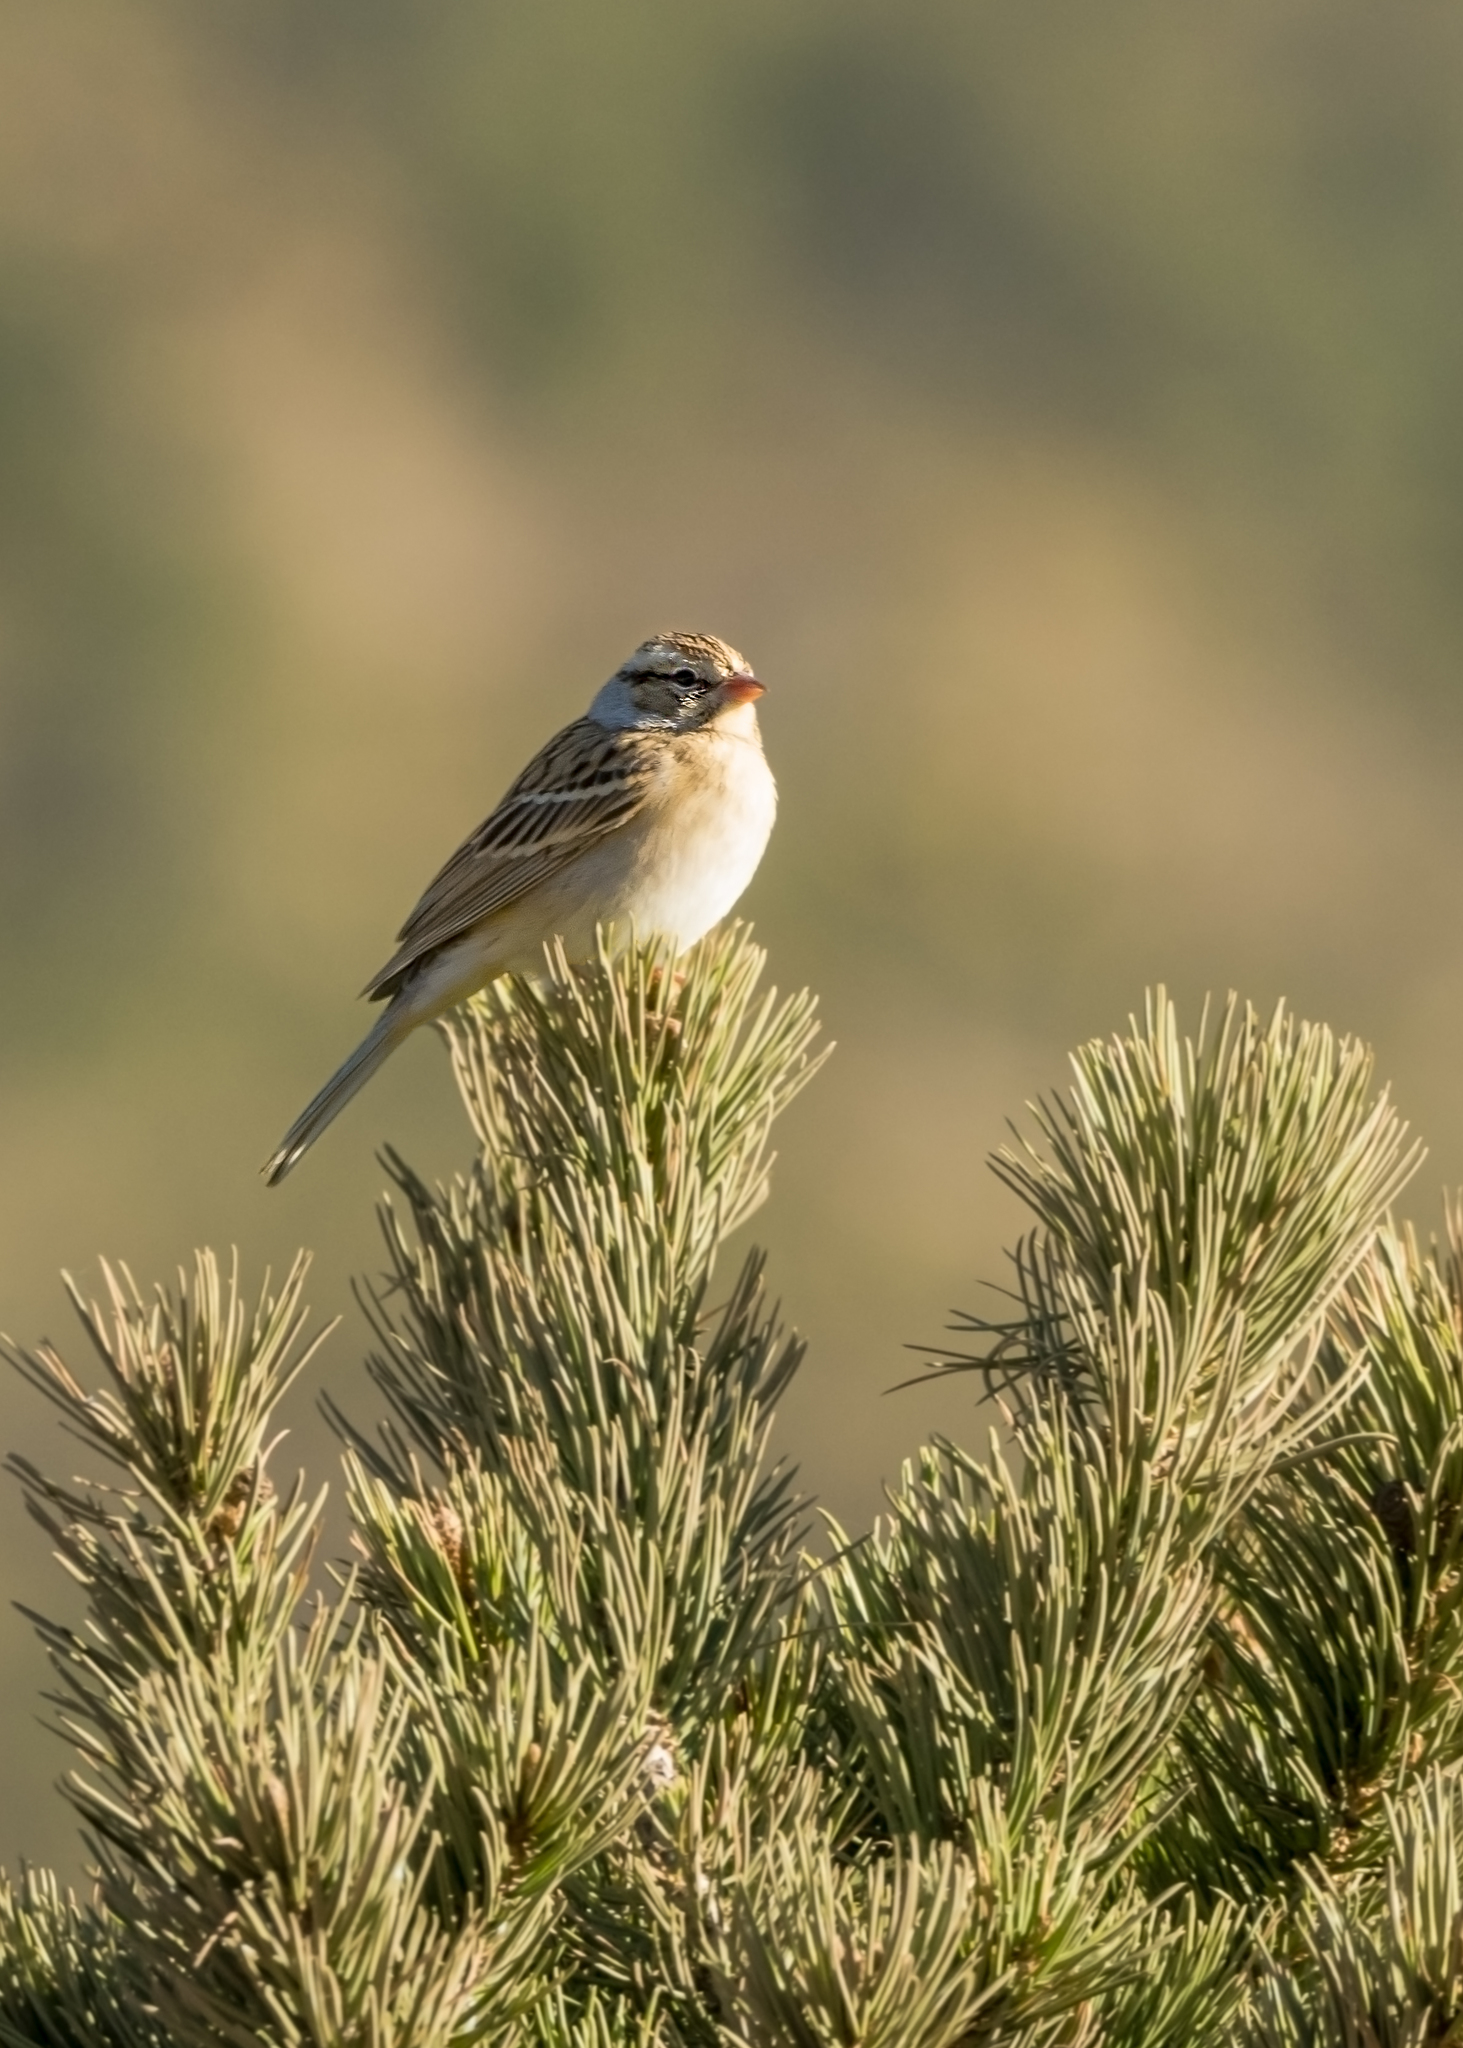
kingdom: Animalia
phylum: Chordata
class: Aves
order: Passeriformes
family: Passerellidae
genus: Spizella
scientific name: Spizella passerina
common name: Chipping sparrow
